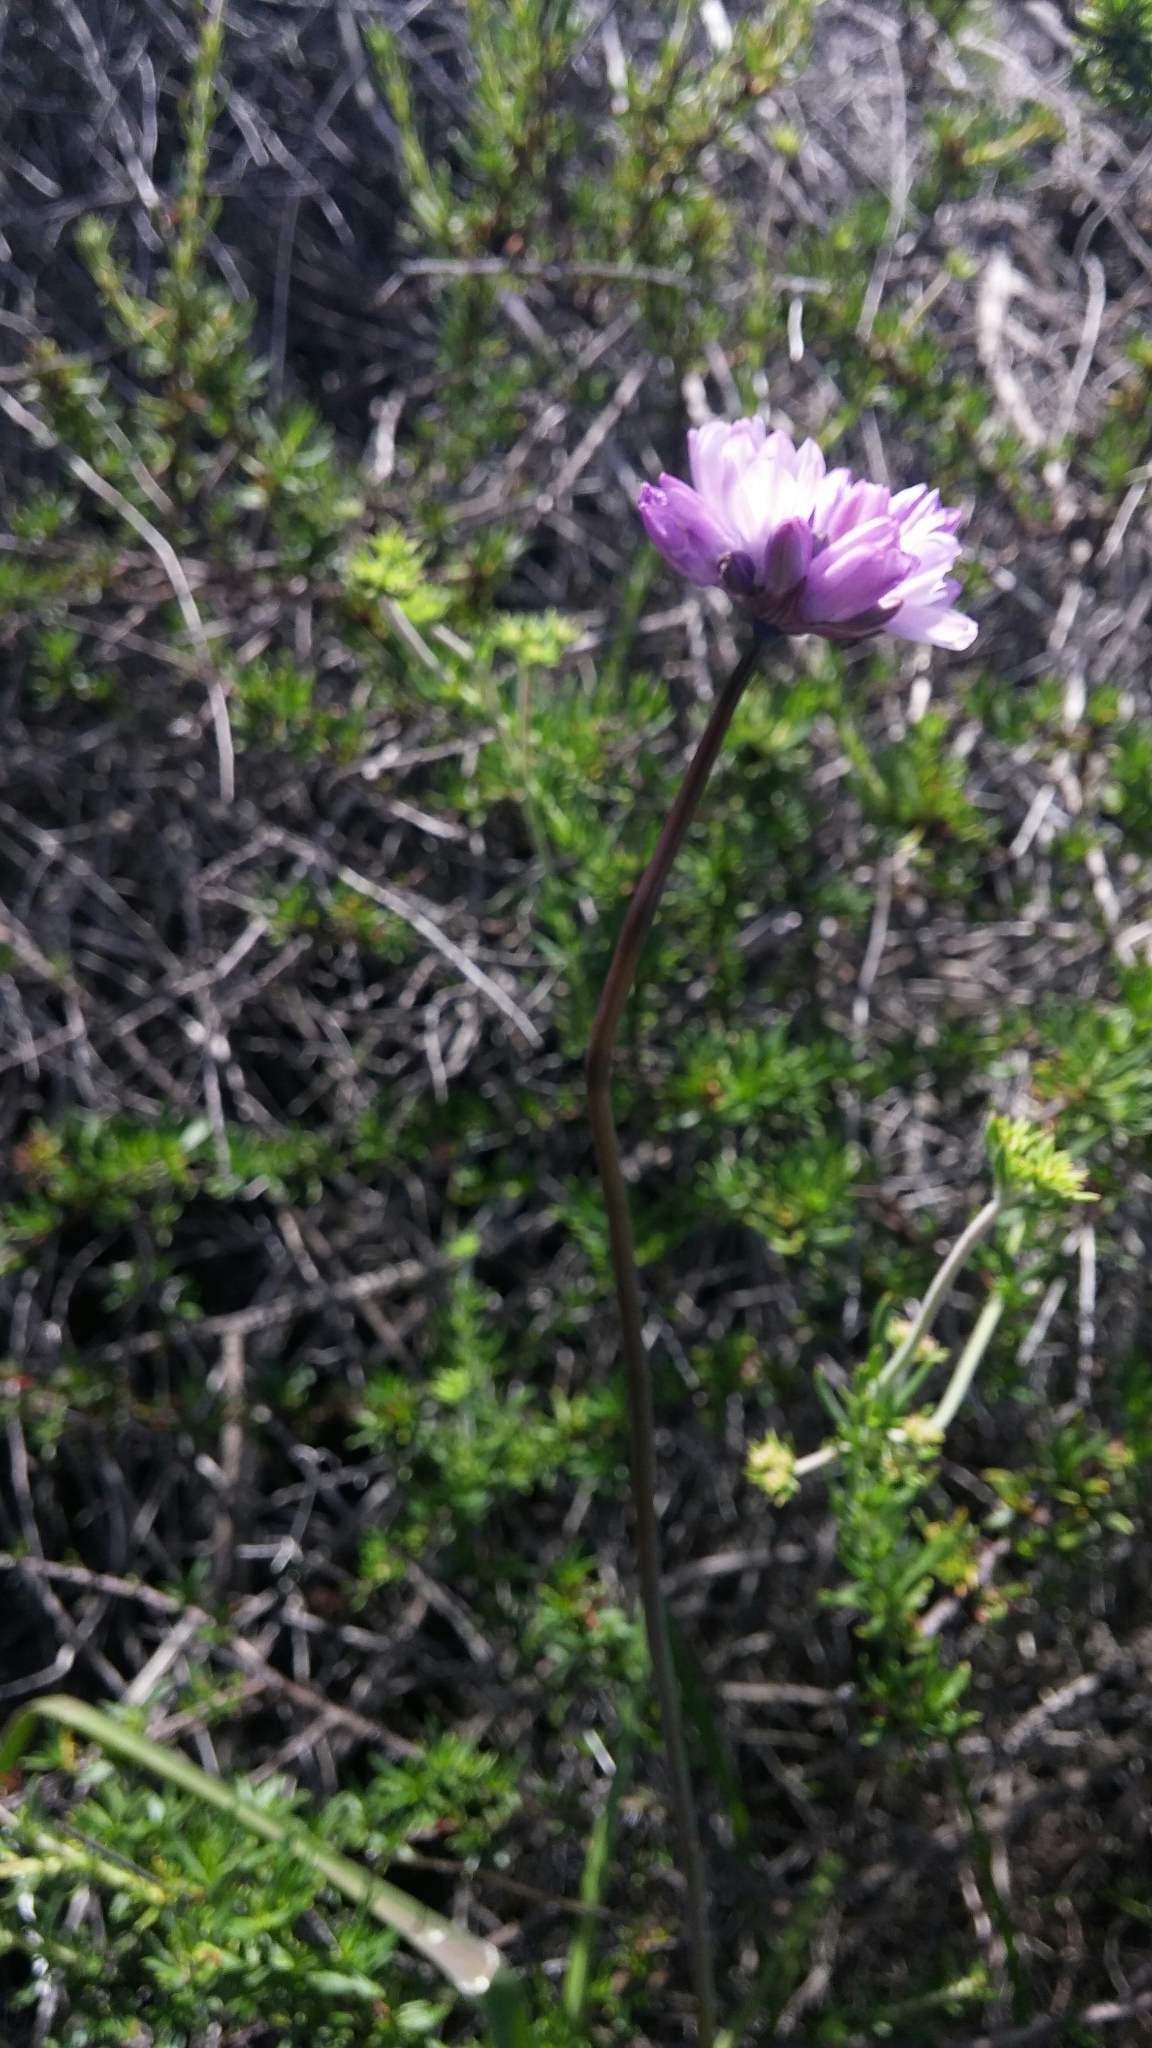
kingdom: Plantae
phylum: Tracheophyta
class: Liliopsida
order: Asparagales
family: Asparagaceae
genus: Dipterostemon
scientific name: Dipterostemon capitatus
